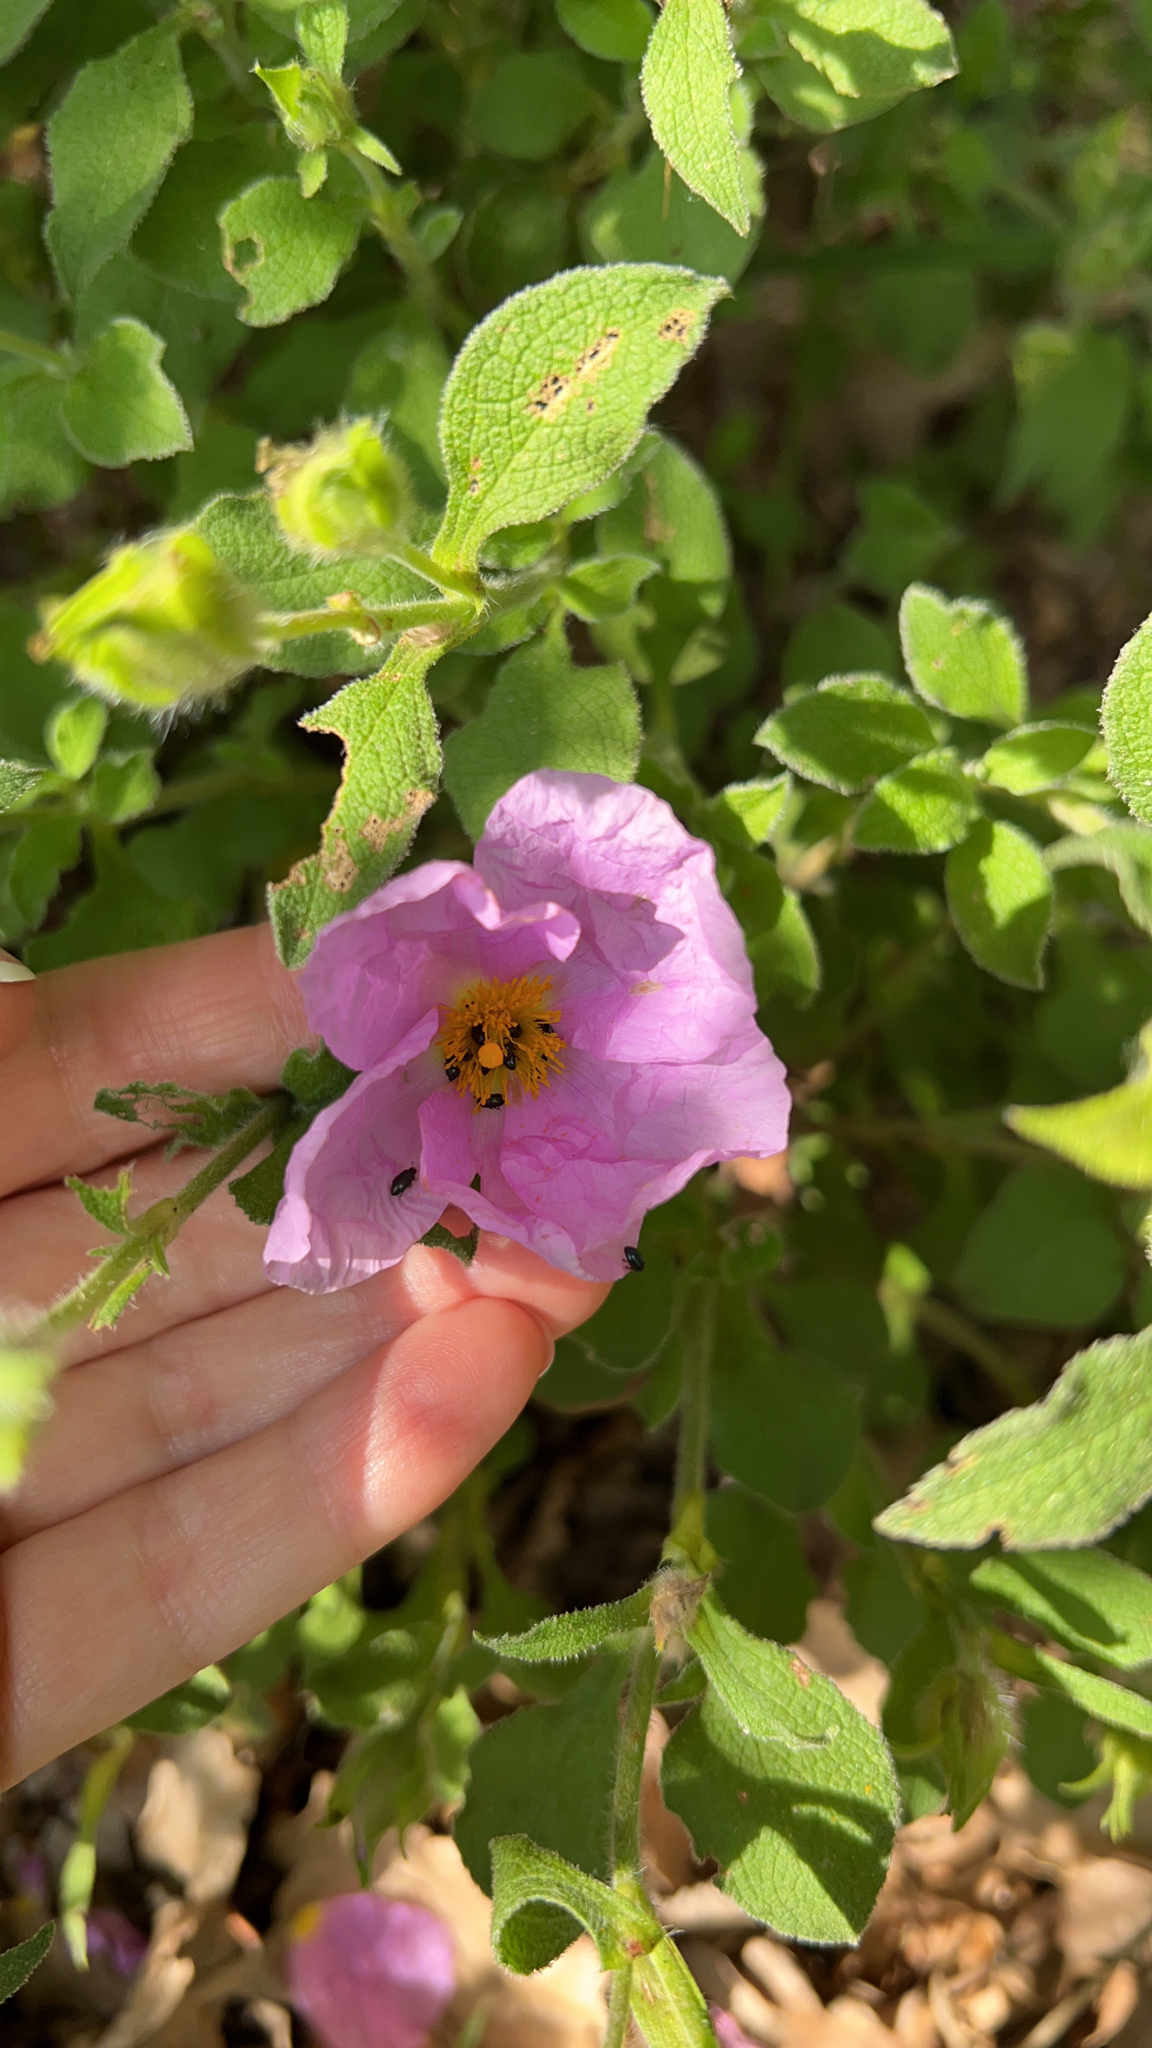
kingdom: Plantae
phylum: Tracheophyta
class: Magnoliopsida
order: Malvales
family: Cistaceae
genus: Cistus
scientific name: Cistus creticus
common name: Cretan rockrose
